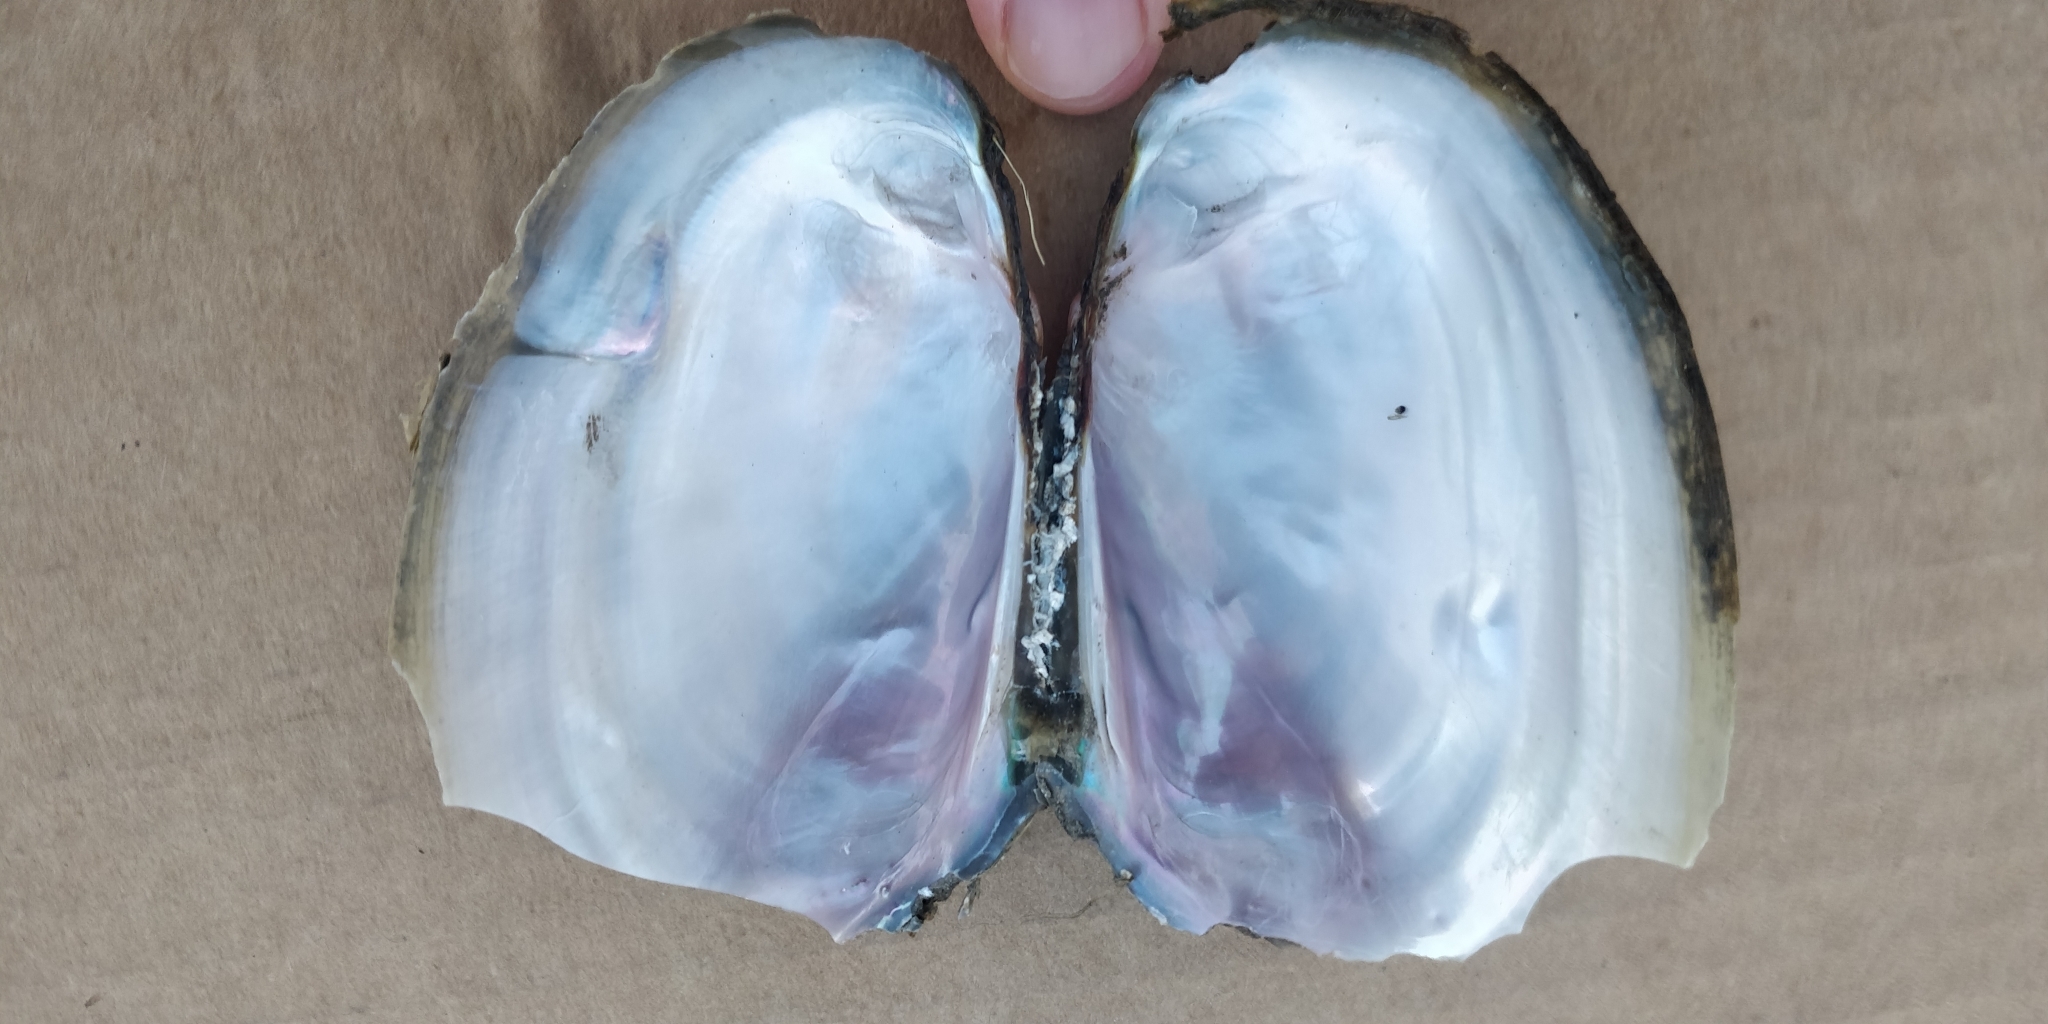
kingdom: Animalia
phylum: Mollusca
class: Bivalvia
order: Unionida
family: Unionidae
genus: Potamilus
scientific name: Potamilus fragilis
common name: Fragile papershell
